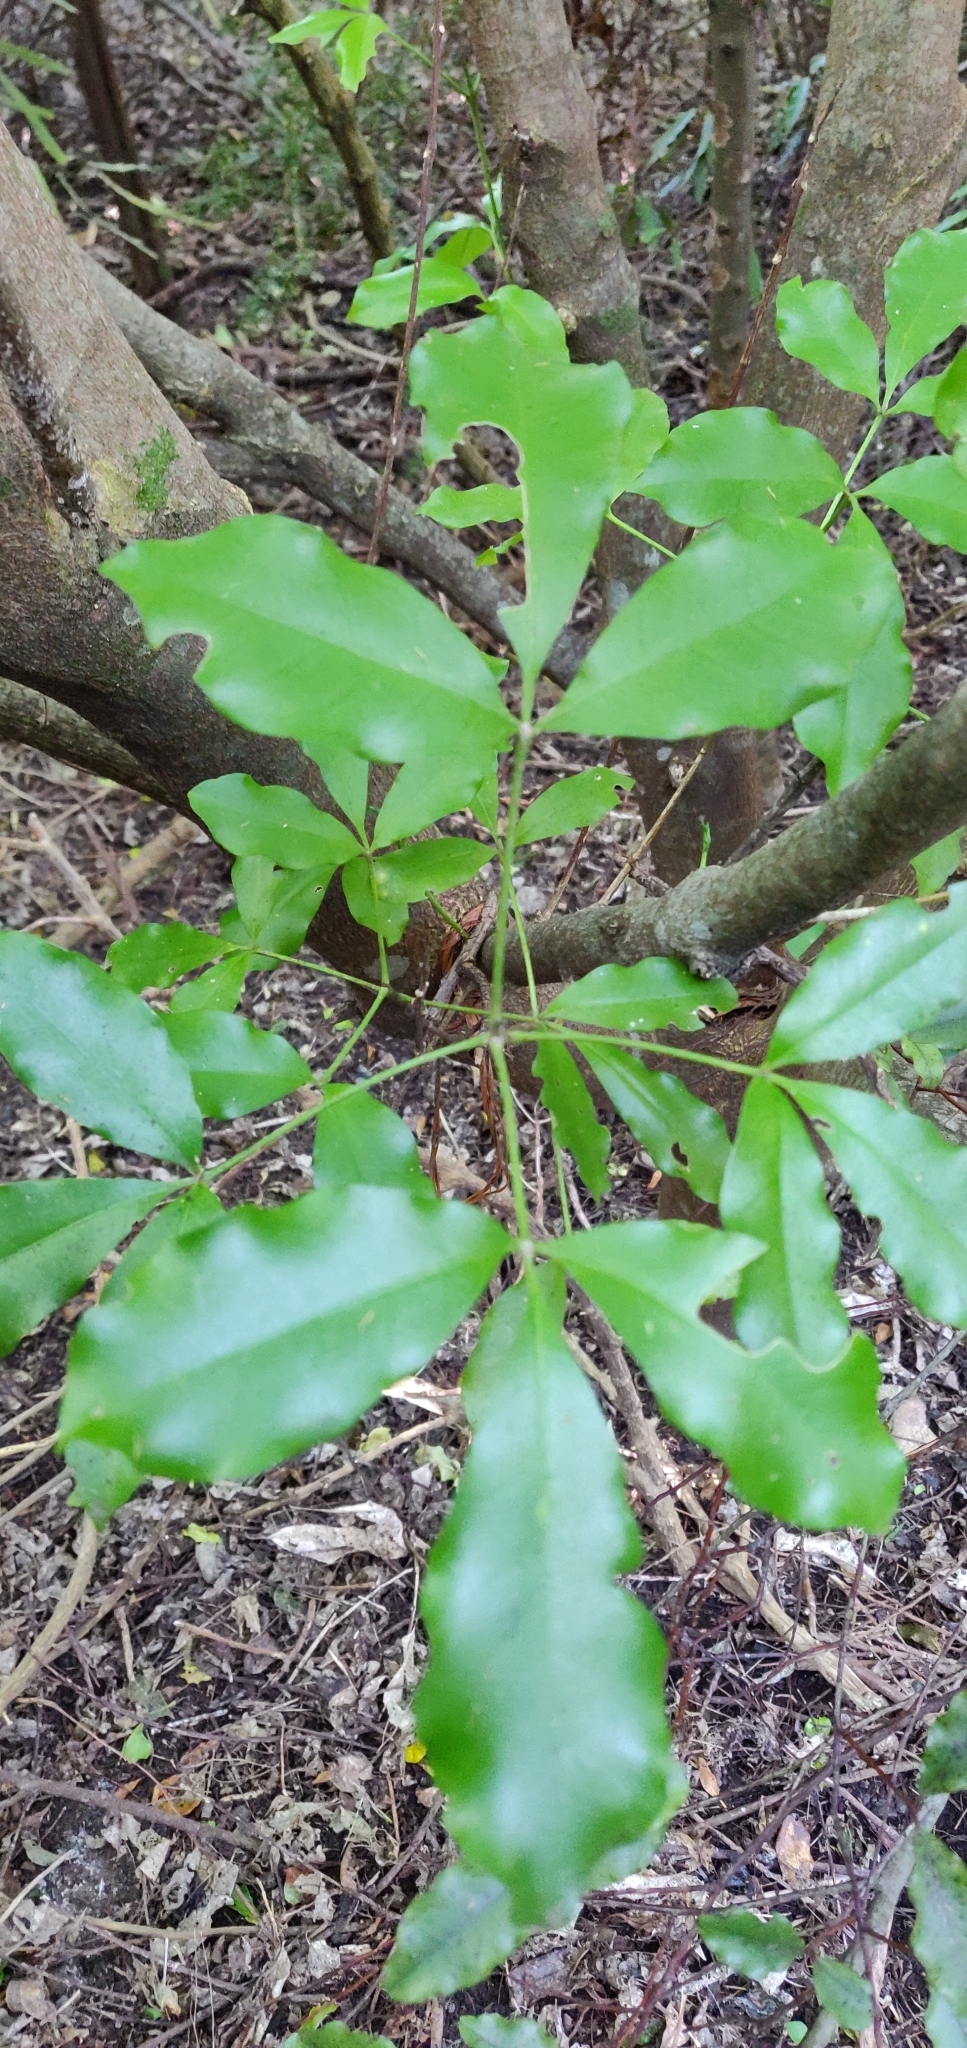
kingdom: Plantae
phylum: Tracheophyta
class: Magnoliopsida
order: Sapindales
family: Rutaceae
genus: Melicope
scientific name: Melicope ternata
